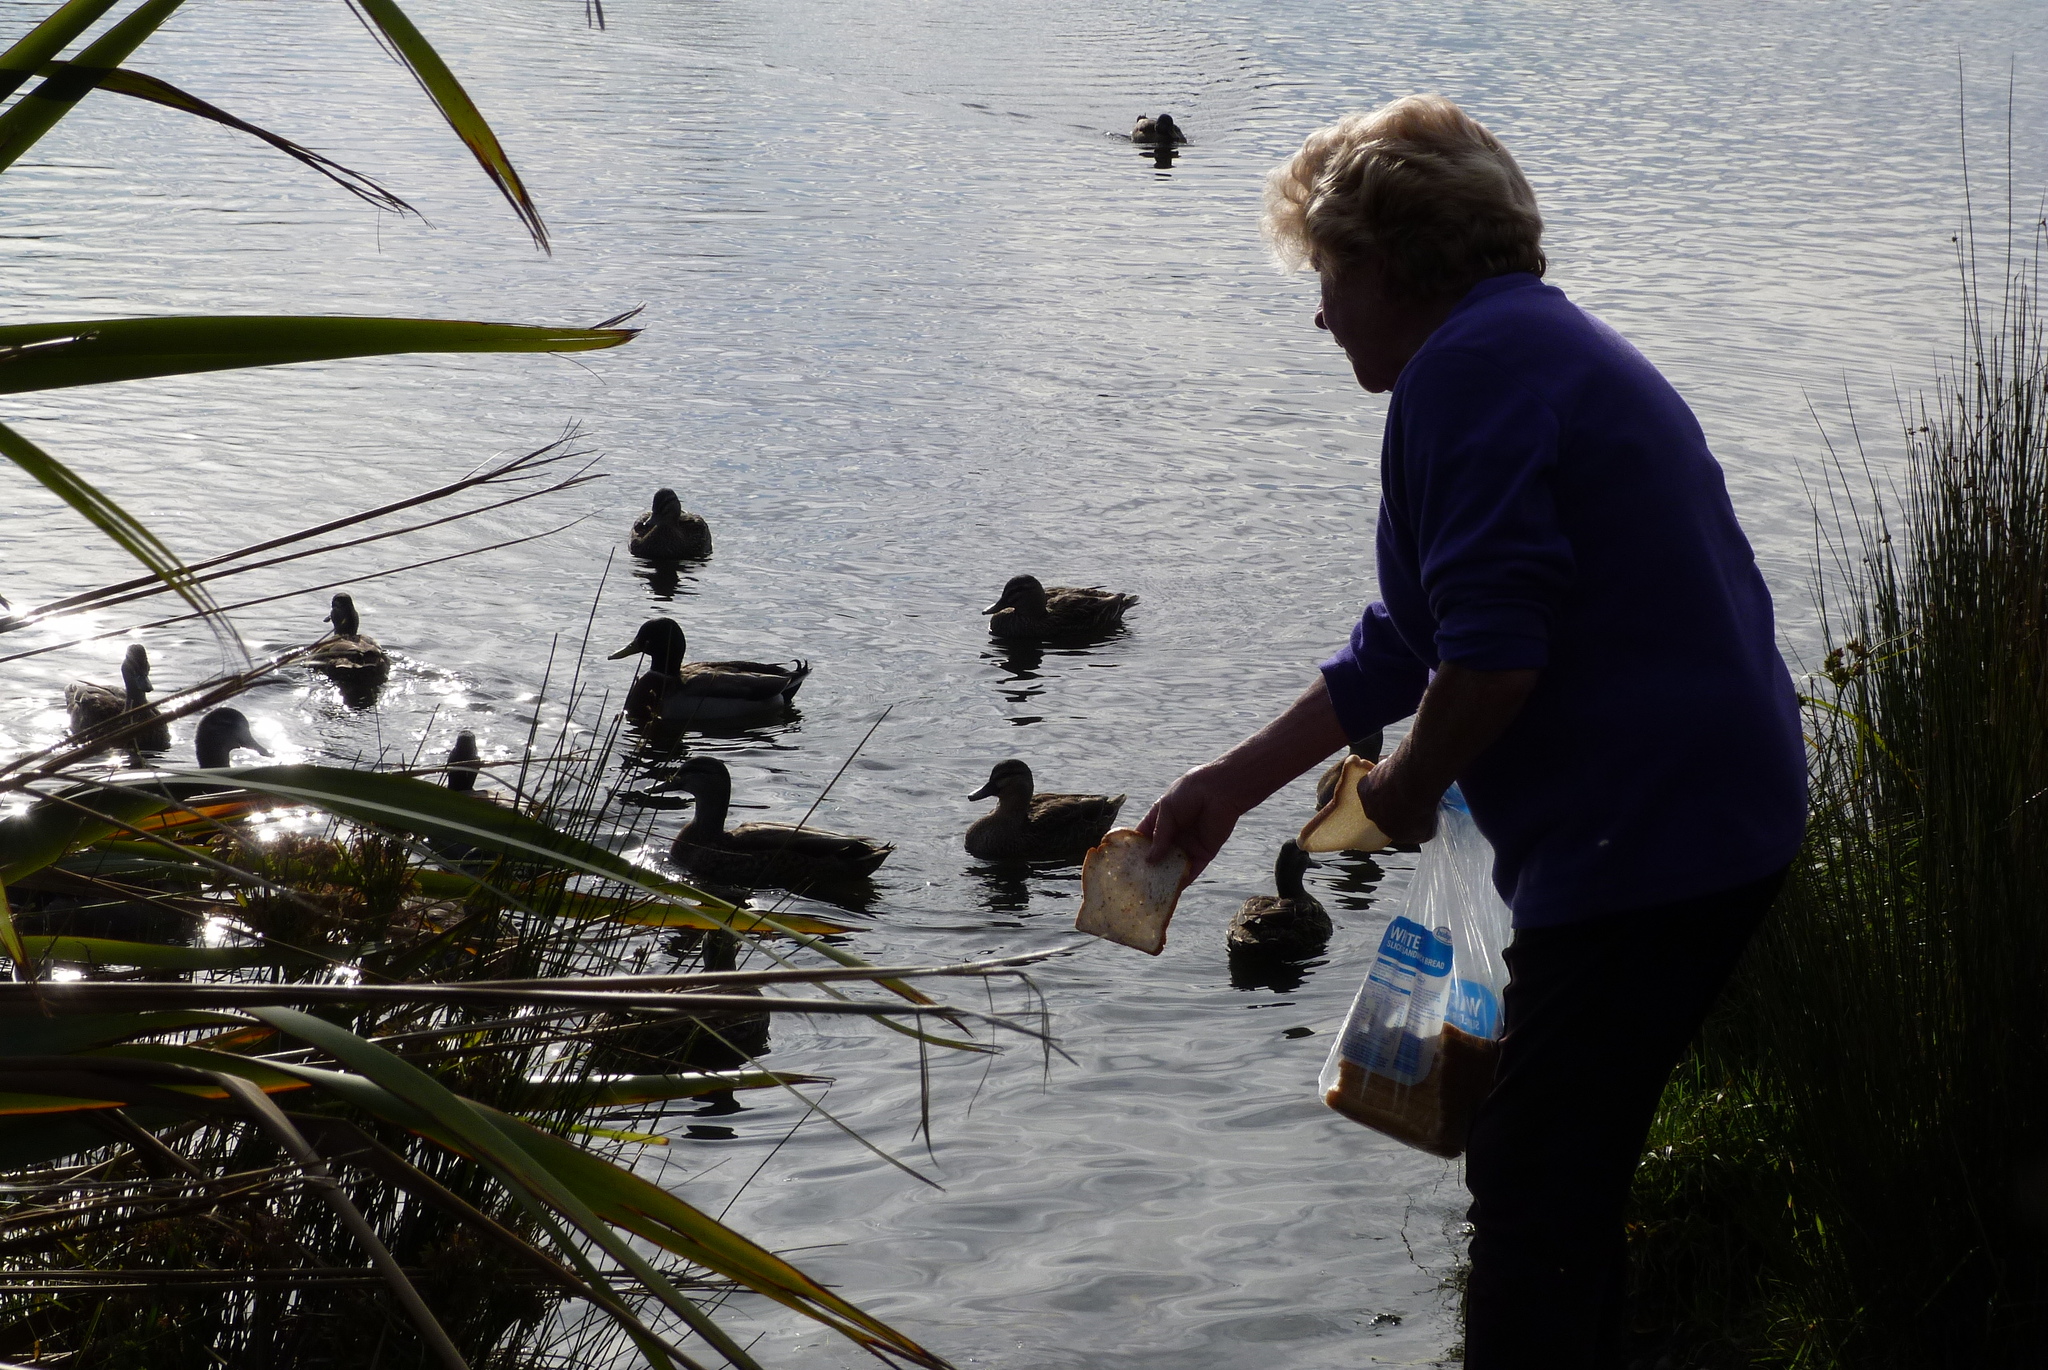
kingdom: Animalia
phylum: Chordata
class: Aves
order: Anseriformes
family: Anatidae
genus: Anas
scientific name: Anas
